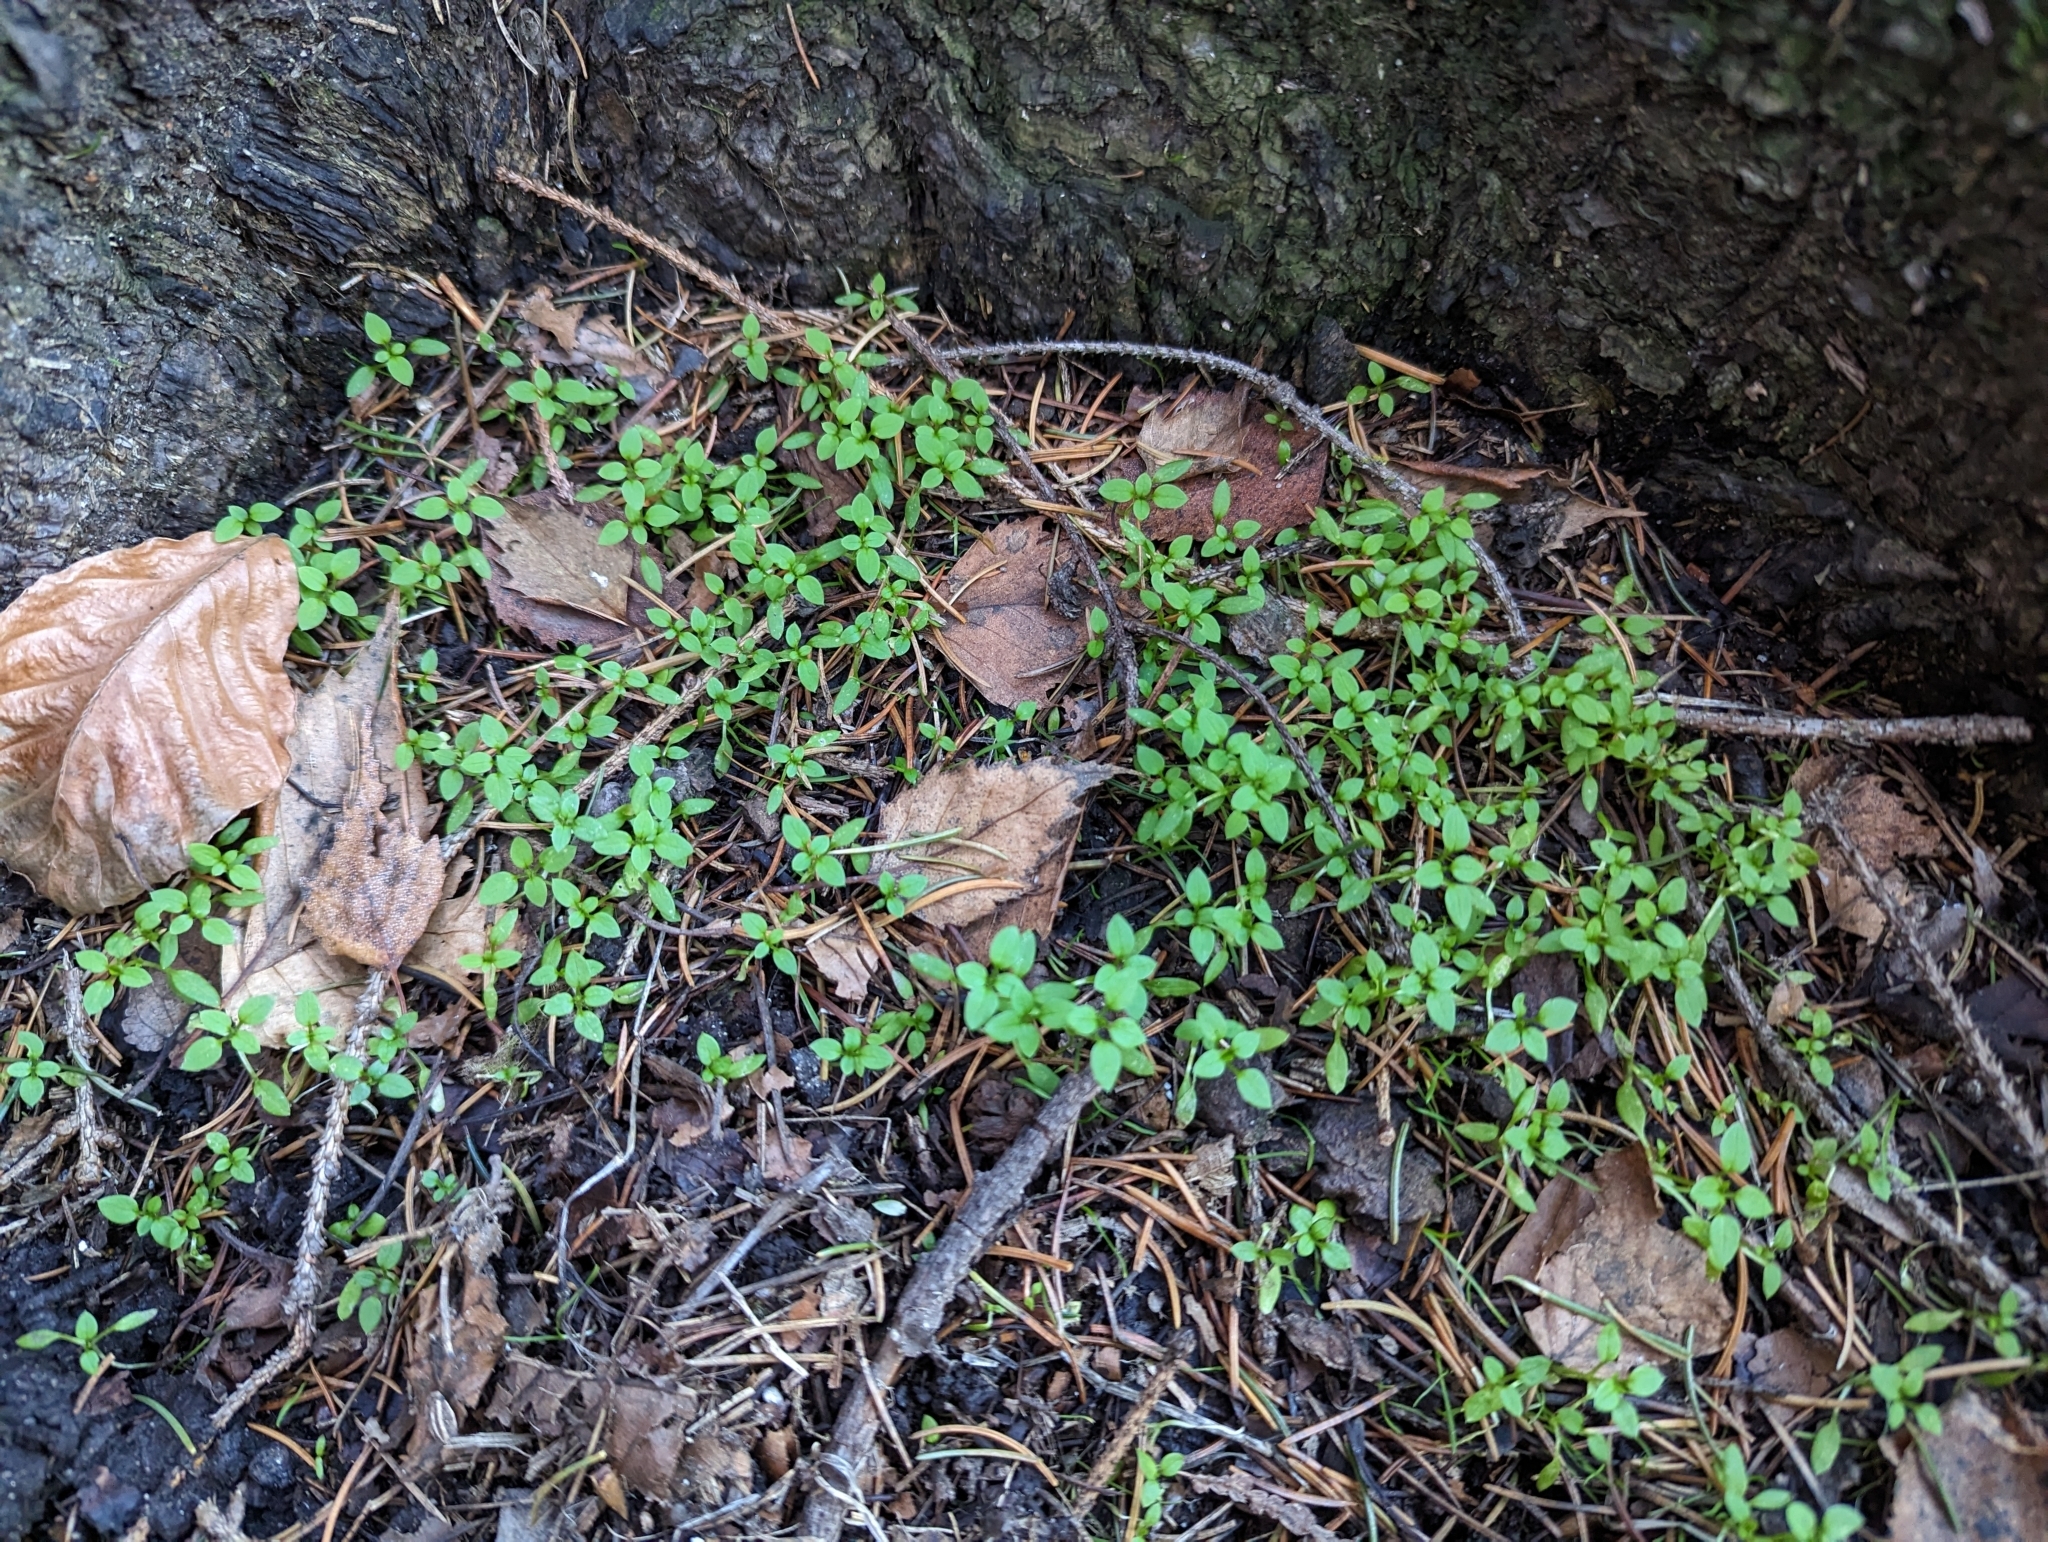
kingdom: Plantae
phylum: Tracheophyta
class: Magnoliopsida
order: Caryophyllales
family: Caryophyllaceae
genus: Stellaria
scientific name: Stellaria media
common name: Common chickweed
